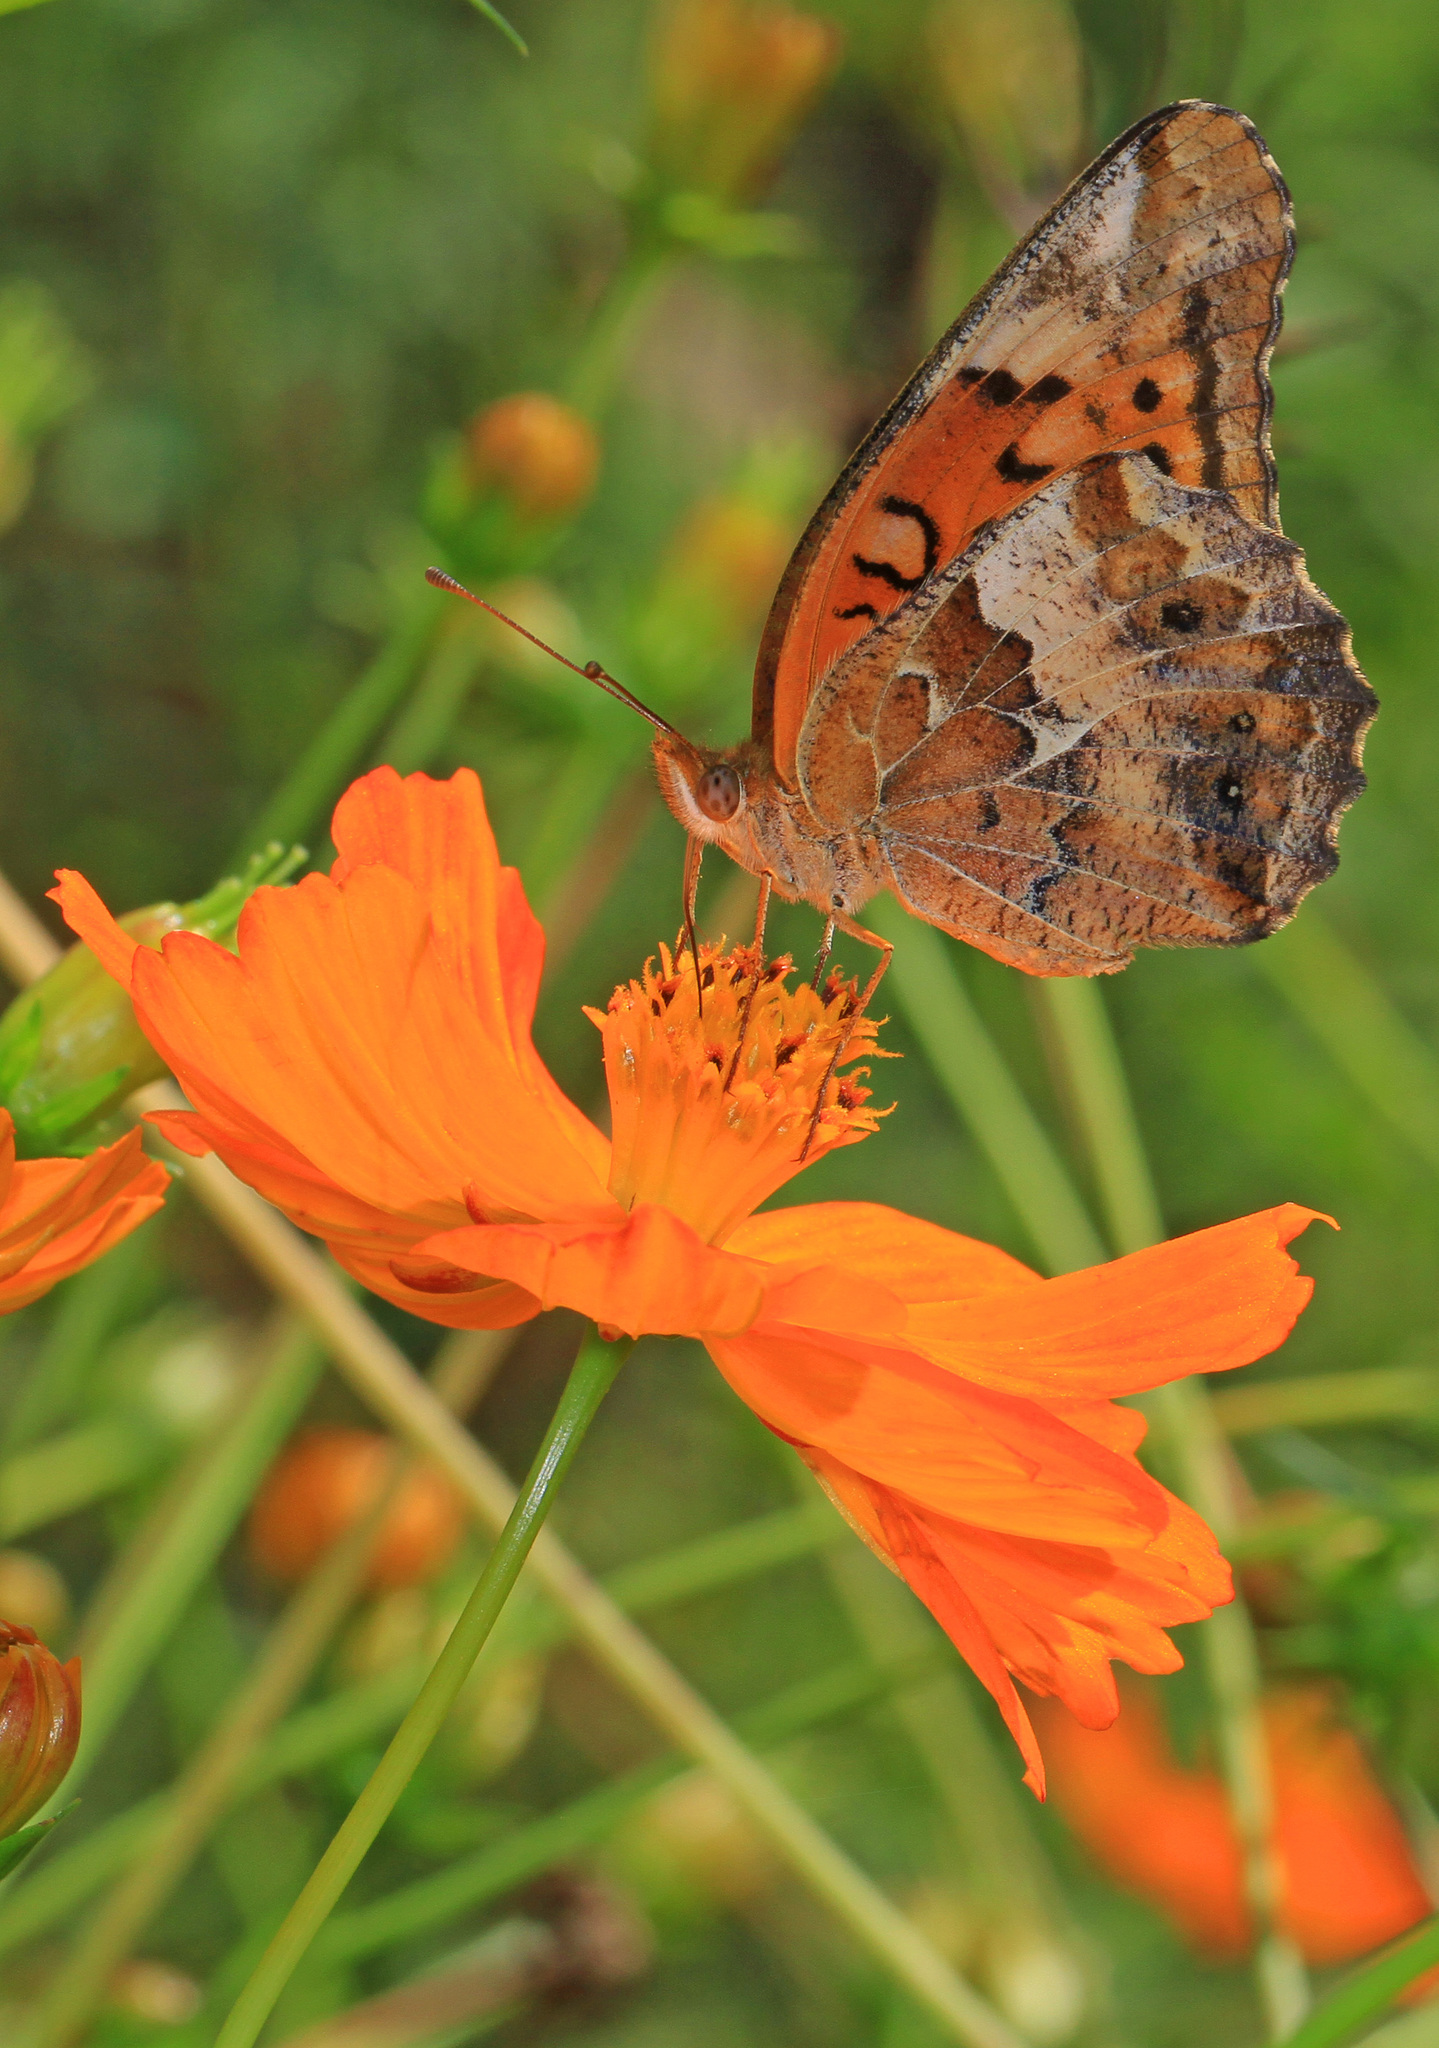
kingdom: Animalia
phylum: Arthropoda
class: Insecta
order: Lepidoptera
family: Nymphalidae
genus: Euptoieta
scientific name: Euptoieta claudia
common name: Variegated fritillary
